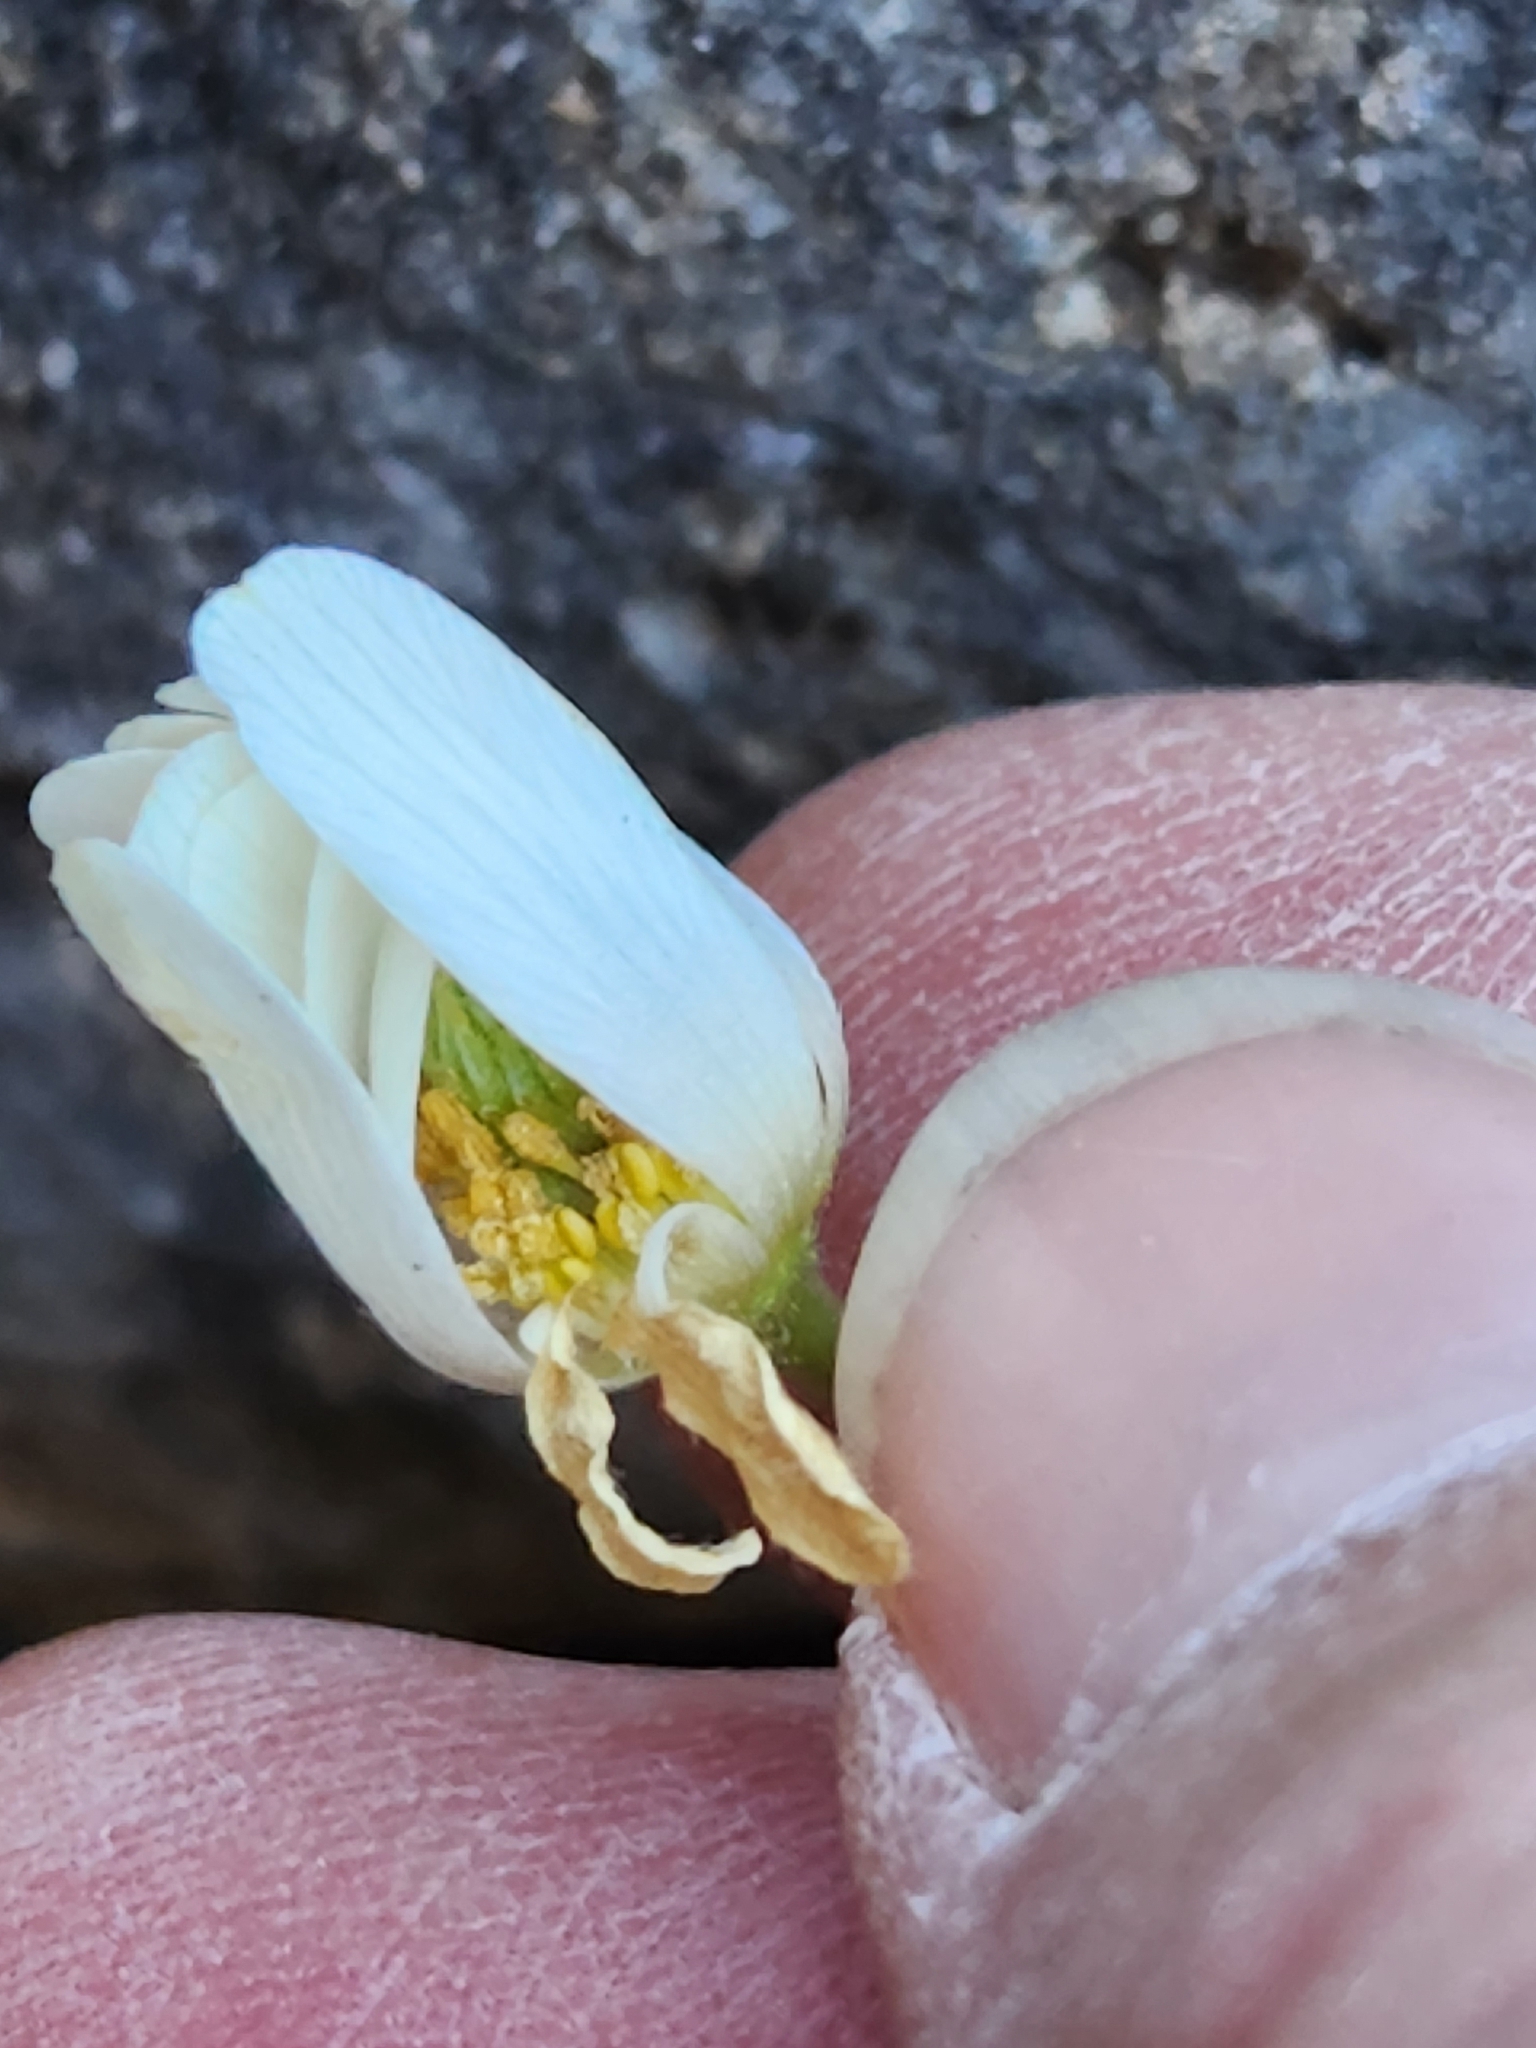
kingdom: Plantae
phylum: Tracheophyta
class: Magnoliopsida
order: Ranunculales
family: Ranunculaceae
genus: Anemone
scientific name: Anemone edwardsiana
